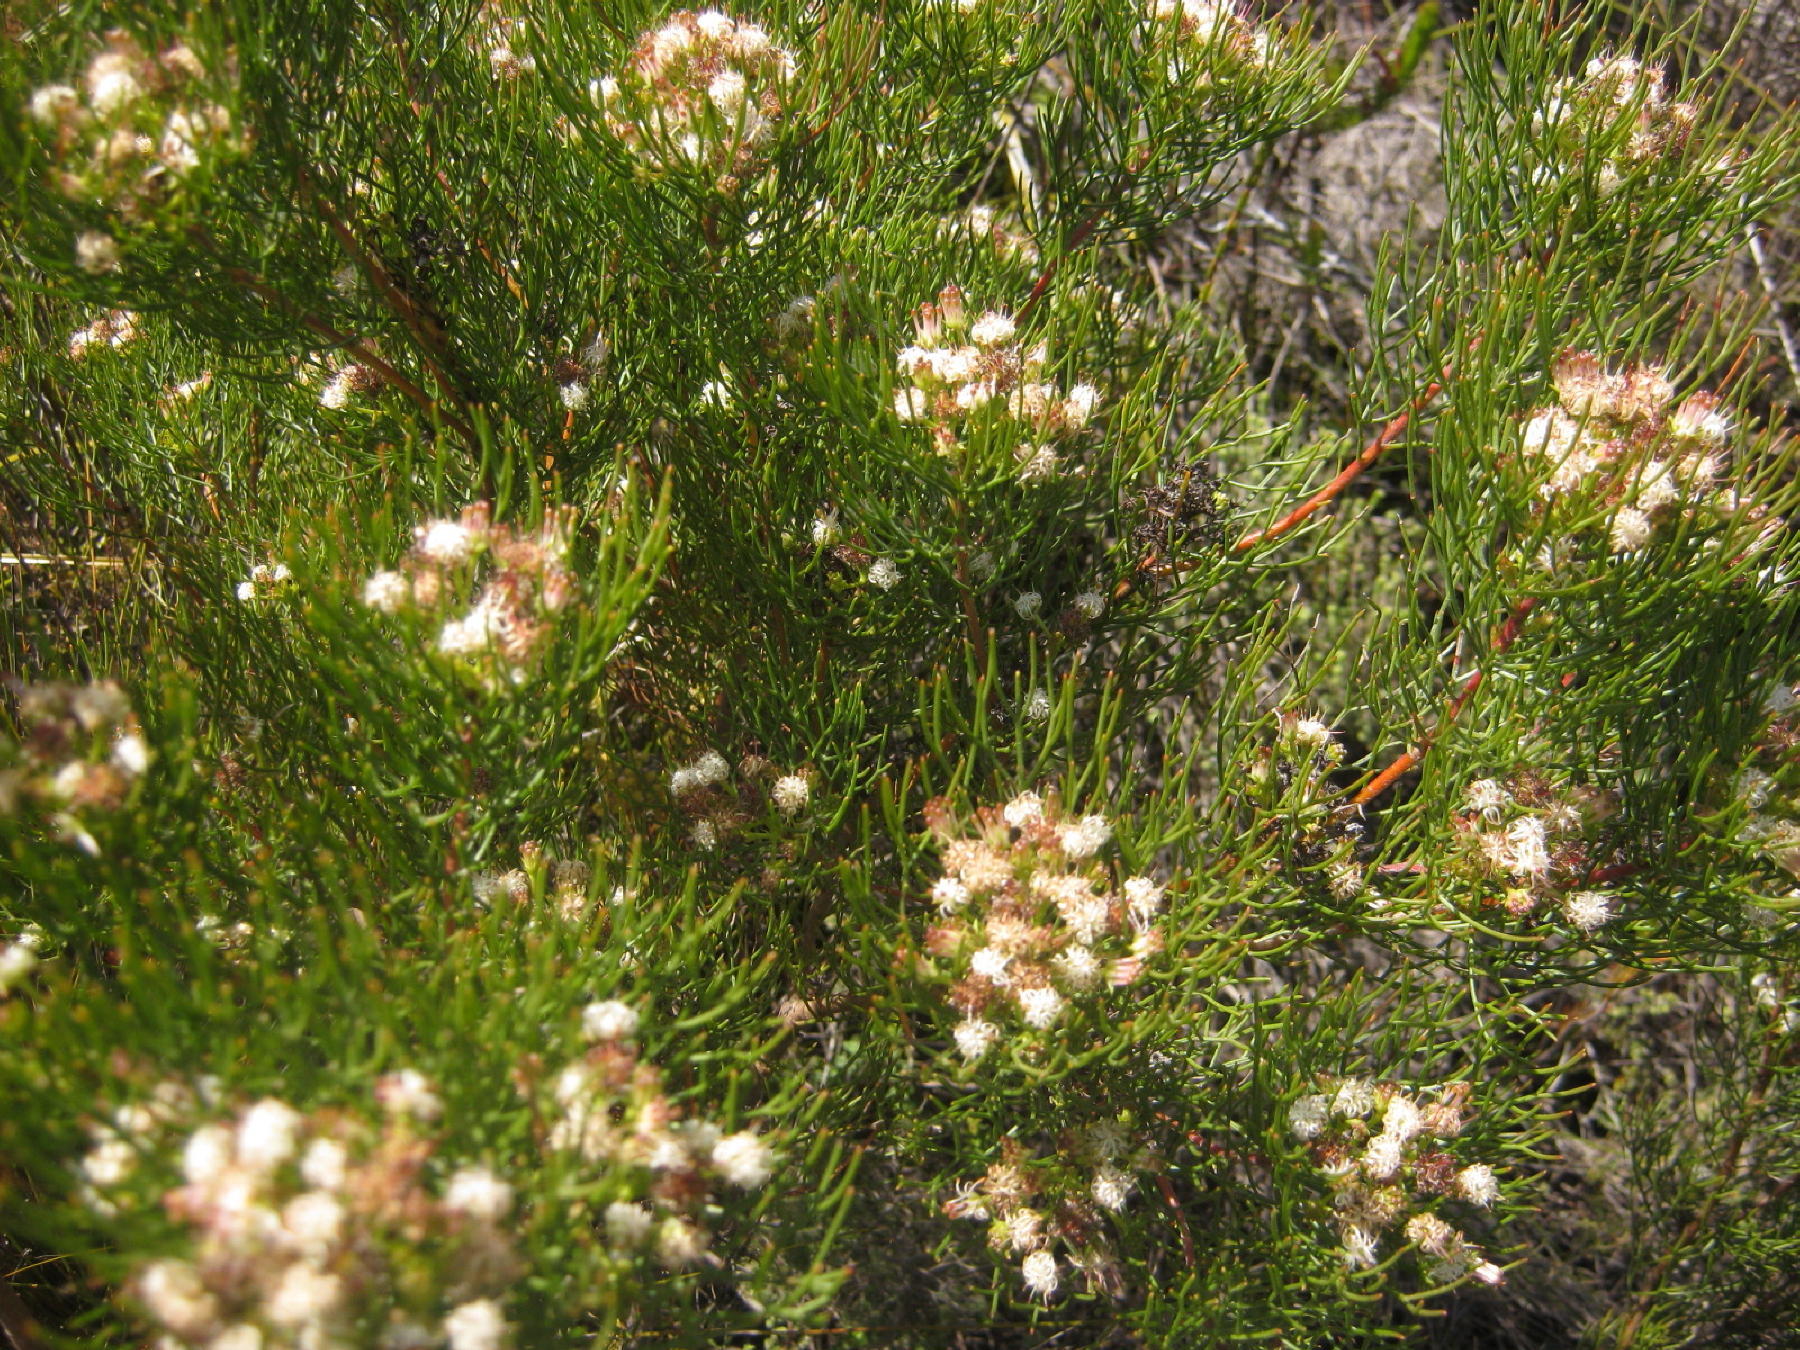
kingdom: Plantae
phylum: Tracheophyta
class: Magnoliopsida
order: Proteales
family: Proteaceae
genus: Serruria
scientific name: Serruria fasciflora
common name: Common pin spiderhead
